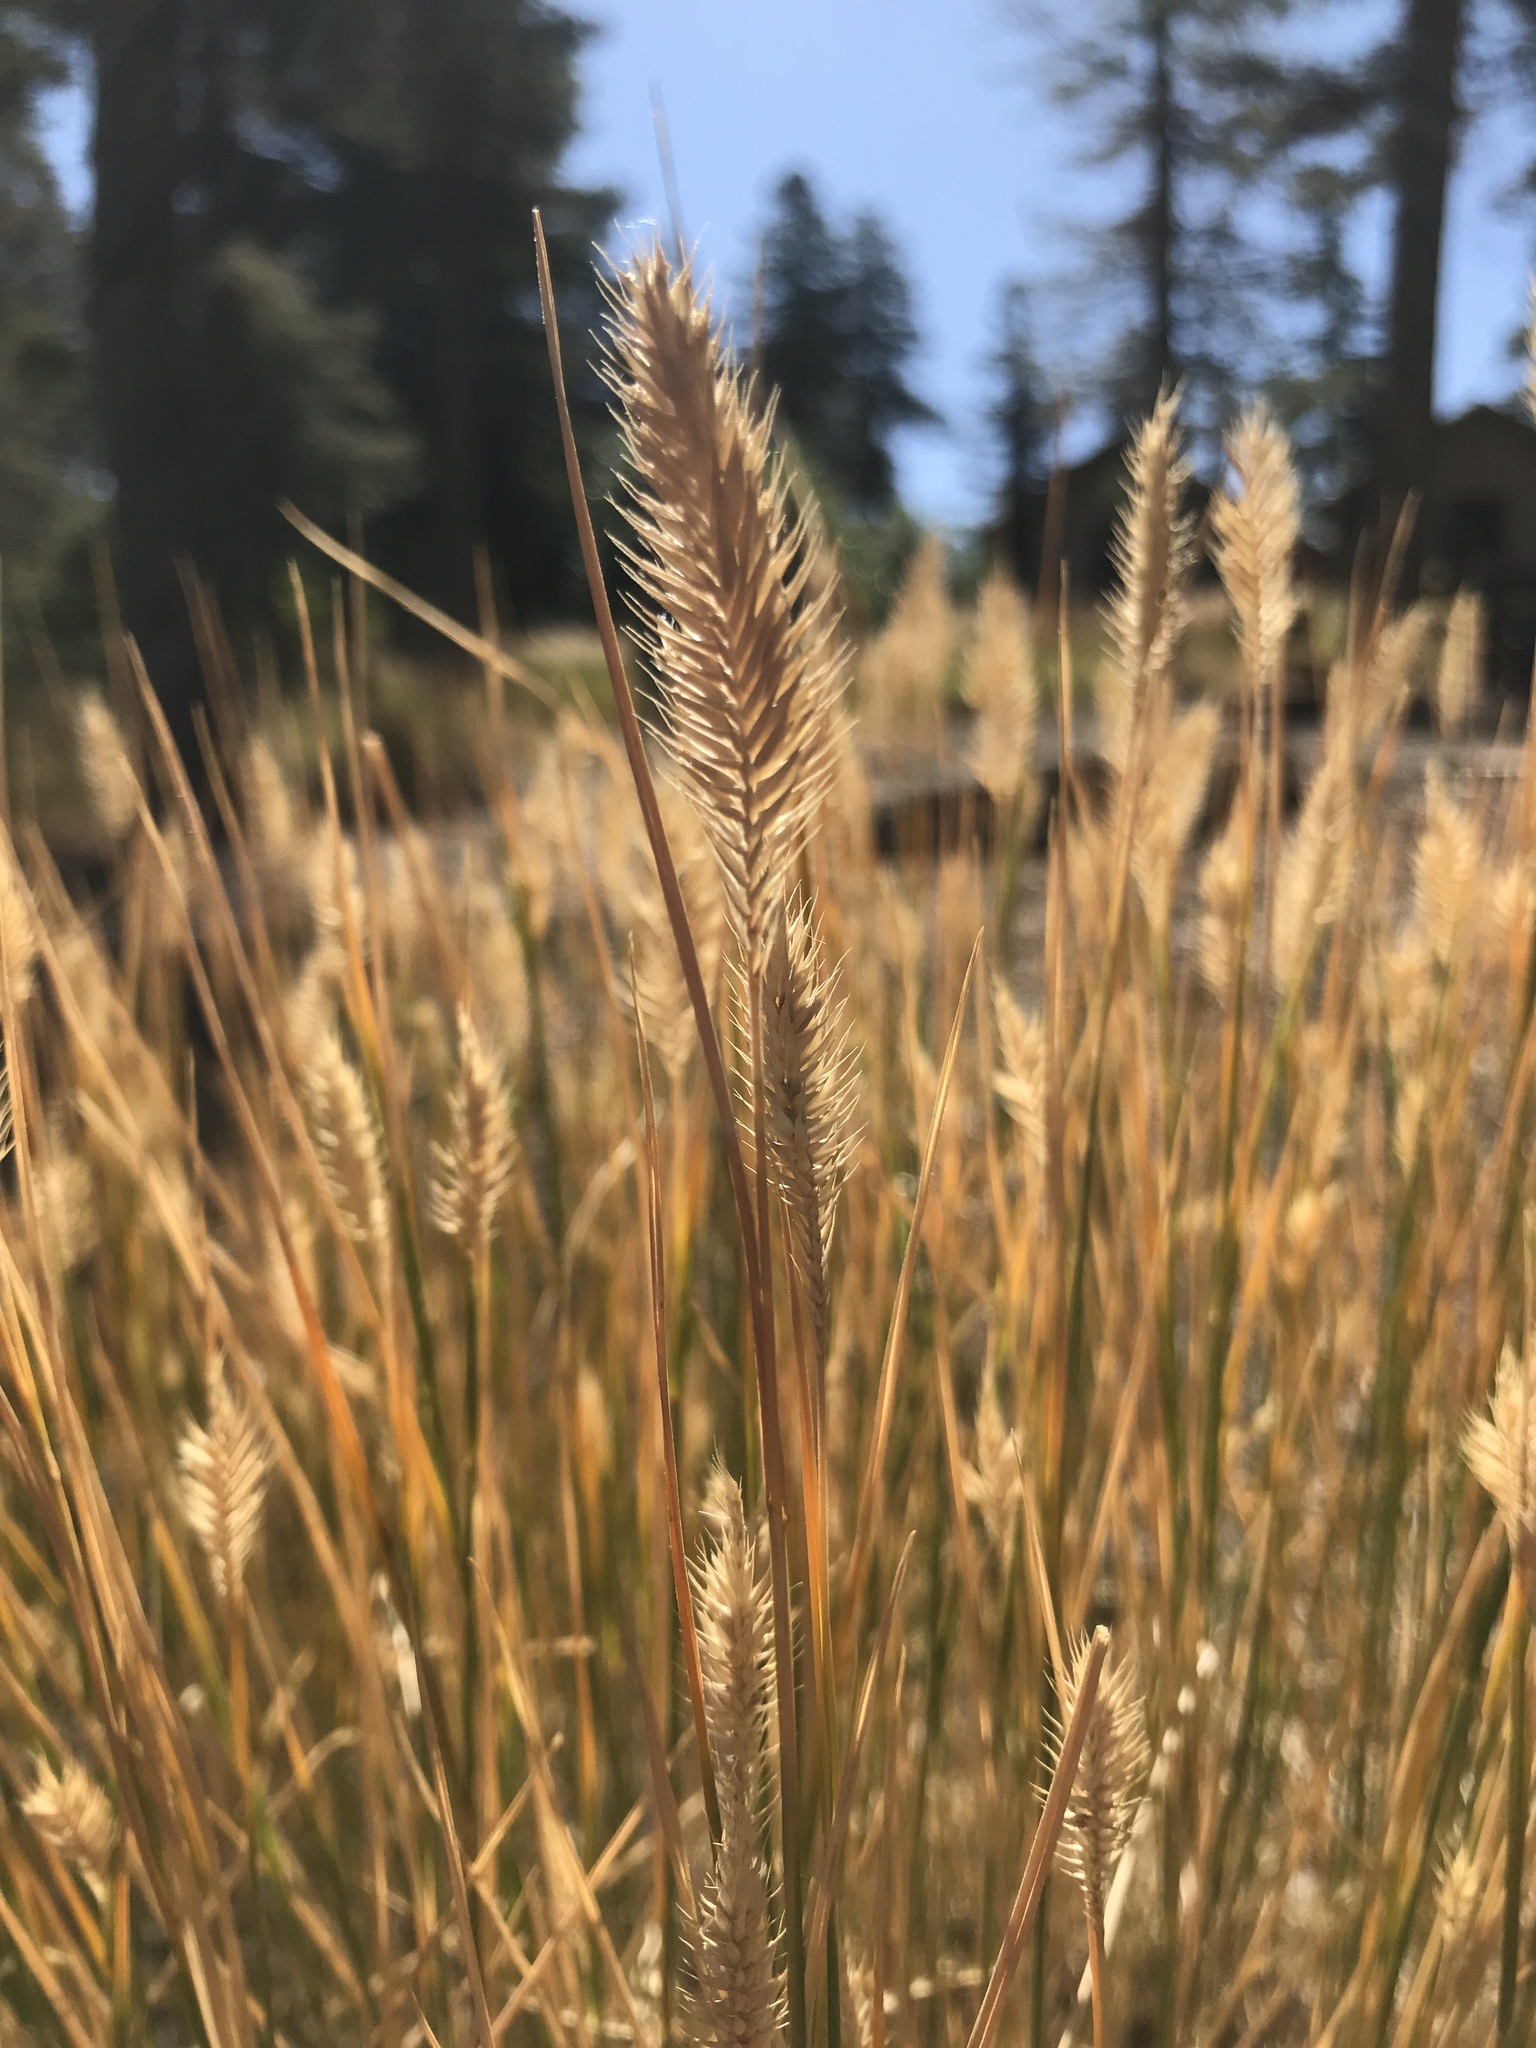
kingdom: Plantae
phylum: Tracheophyta
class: Liliopsida
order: Poales
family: Poaceae
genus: Agropyron
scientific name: Agropyron cristatum
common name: Crested wheatgrass
